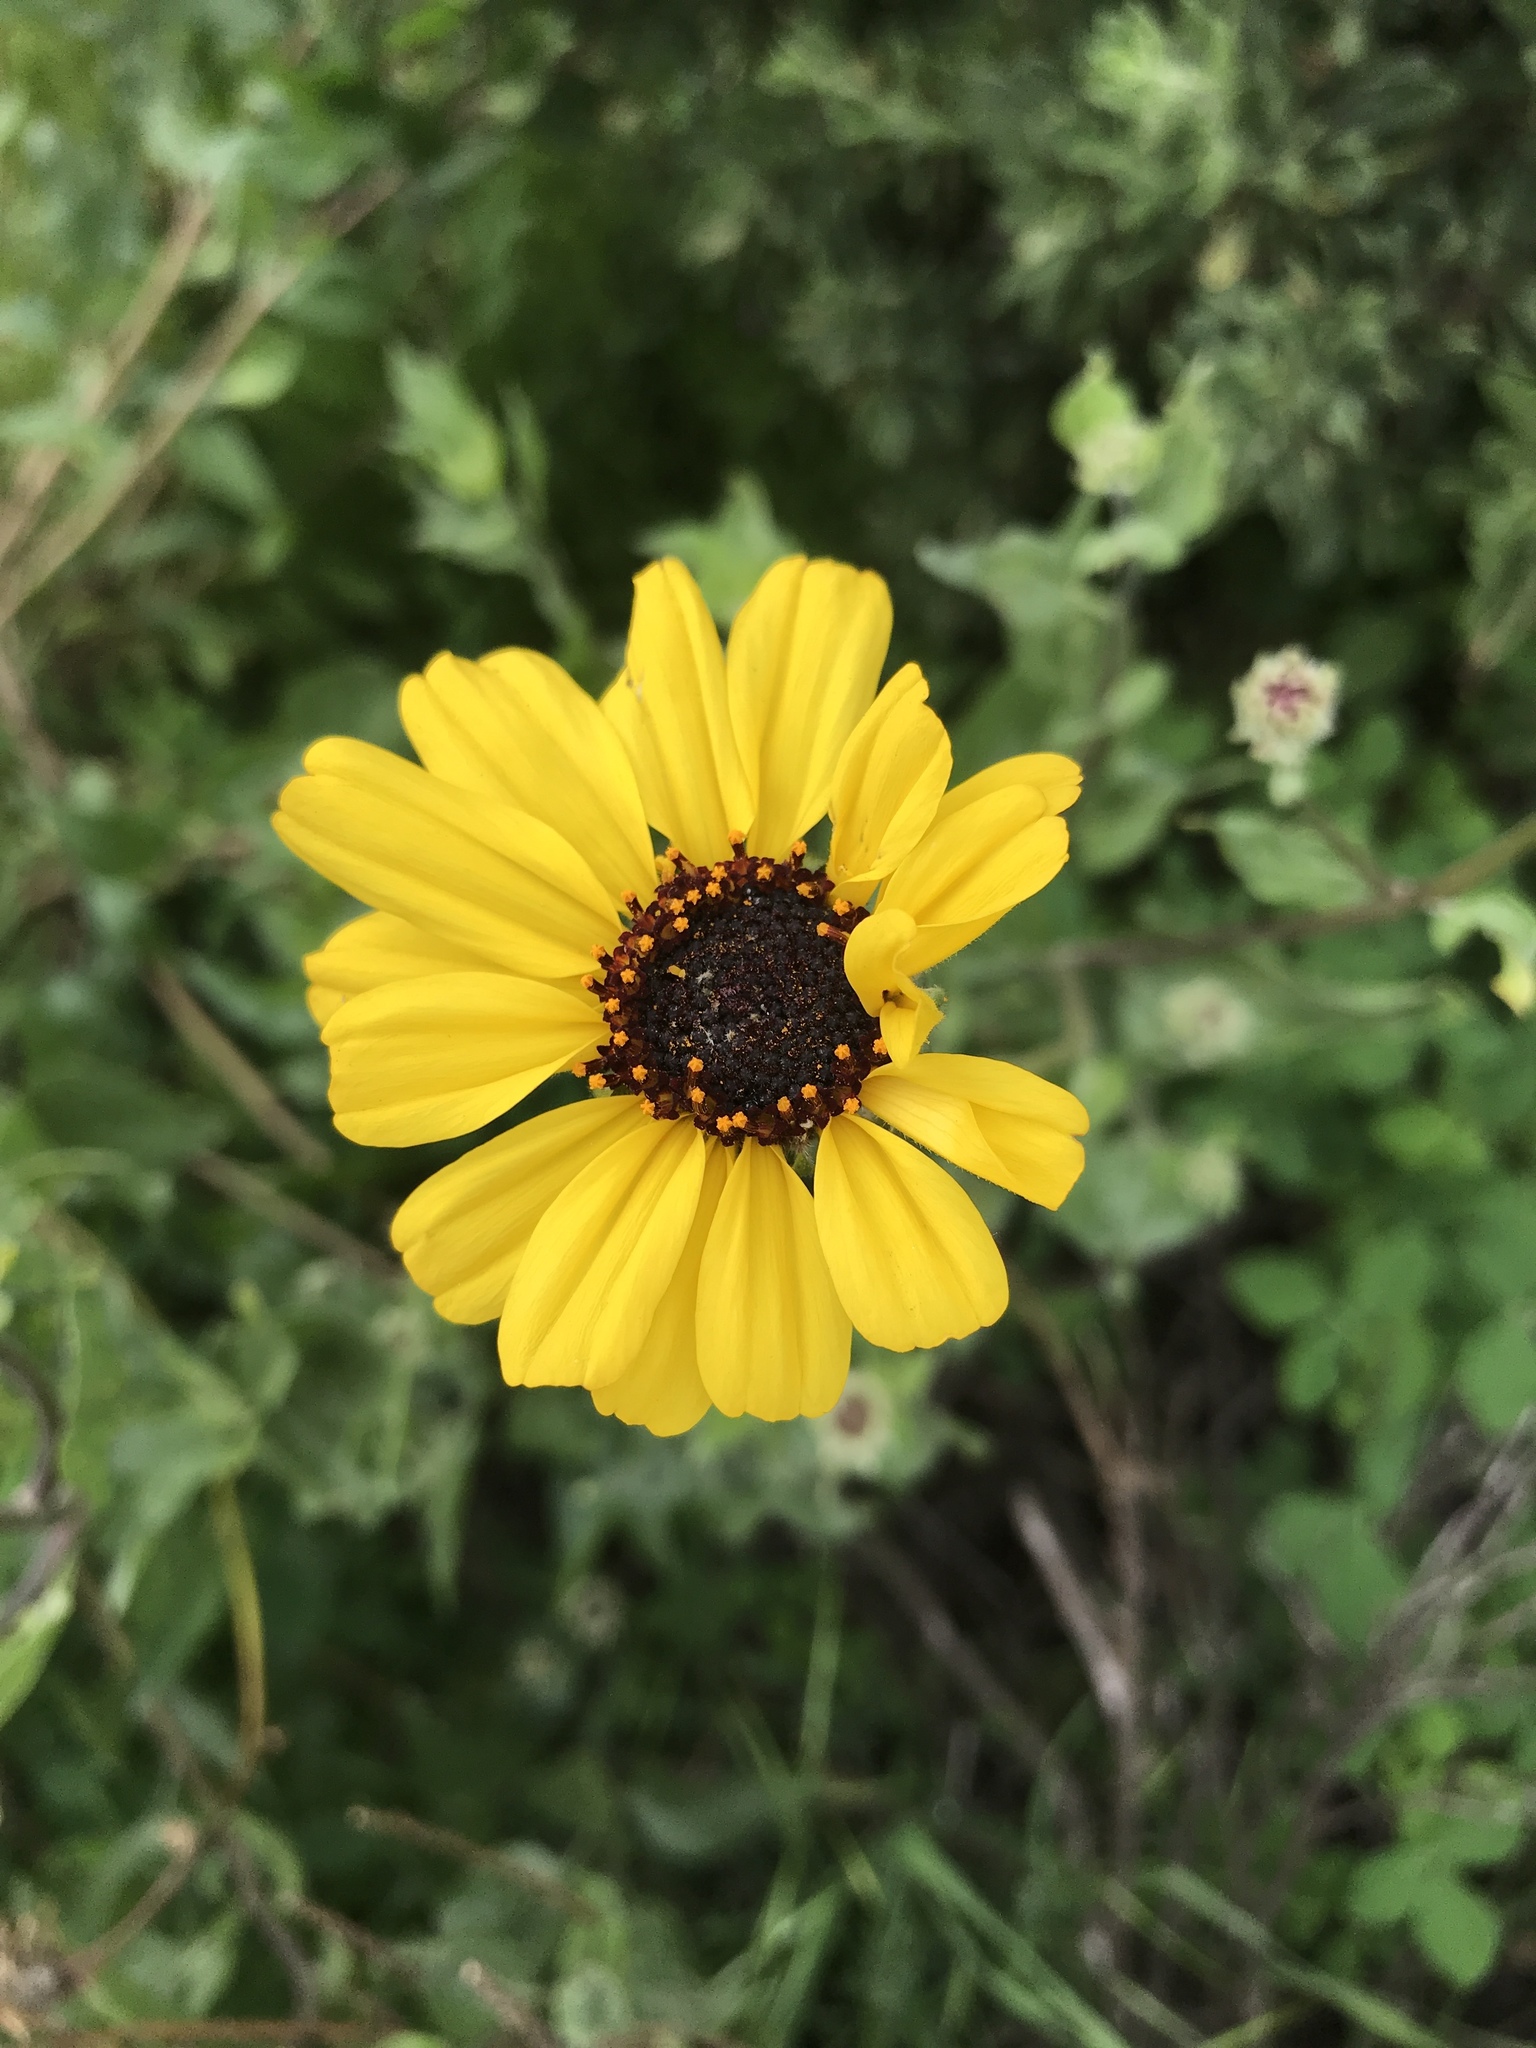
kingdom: Plantae
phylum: Tracheophyta
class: Magnoliopsida
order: Asterales
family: Asteraceae
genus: Encelia
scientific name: Encelia californica
